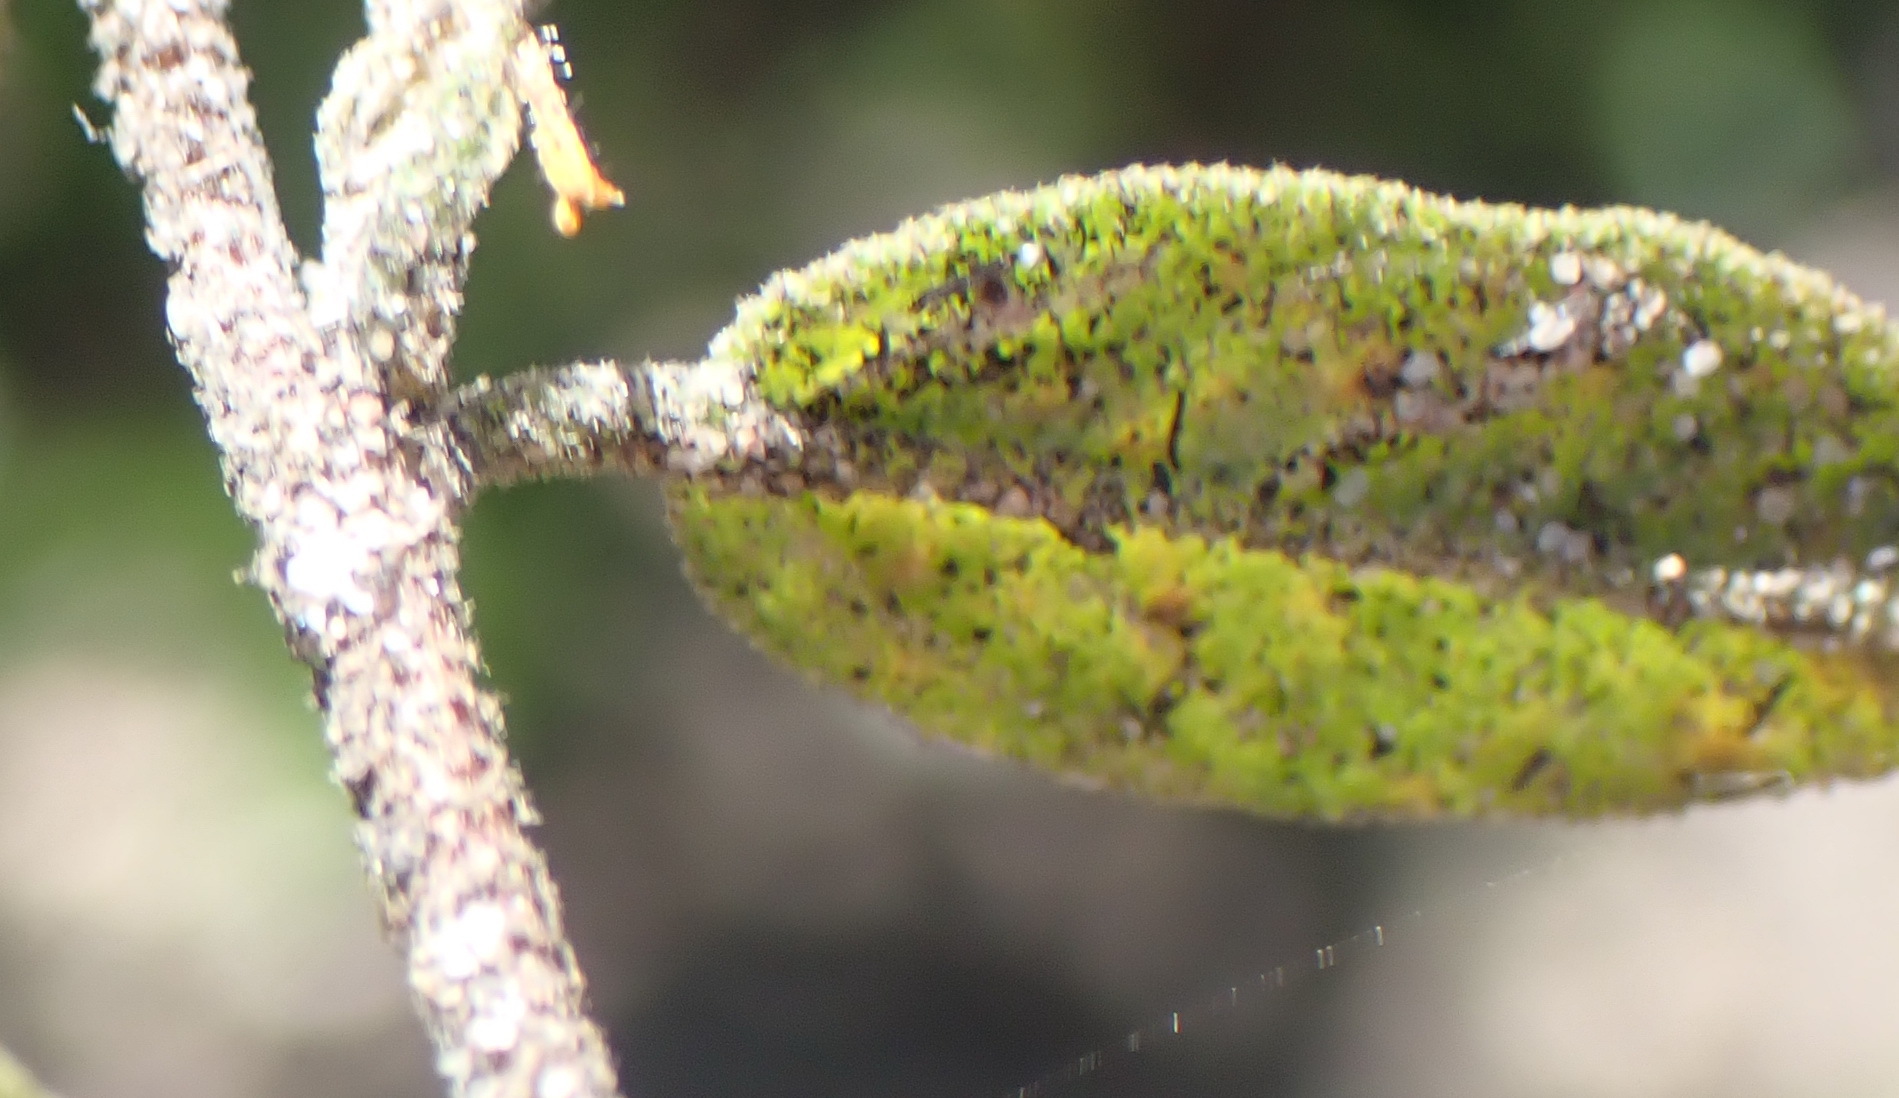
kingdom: Plantae
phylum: Tracheophyta
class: Magnoliopsida
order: Malvales
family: Malvaceae
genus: Hermannia
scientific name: Hermannia salviifolia
